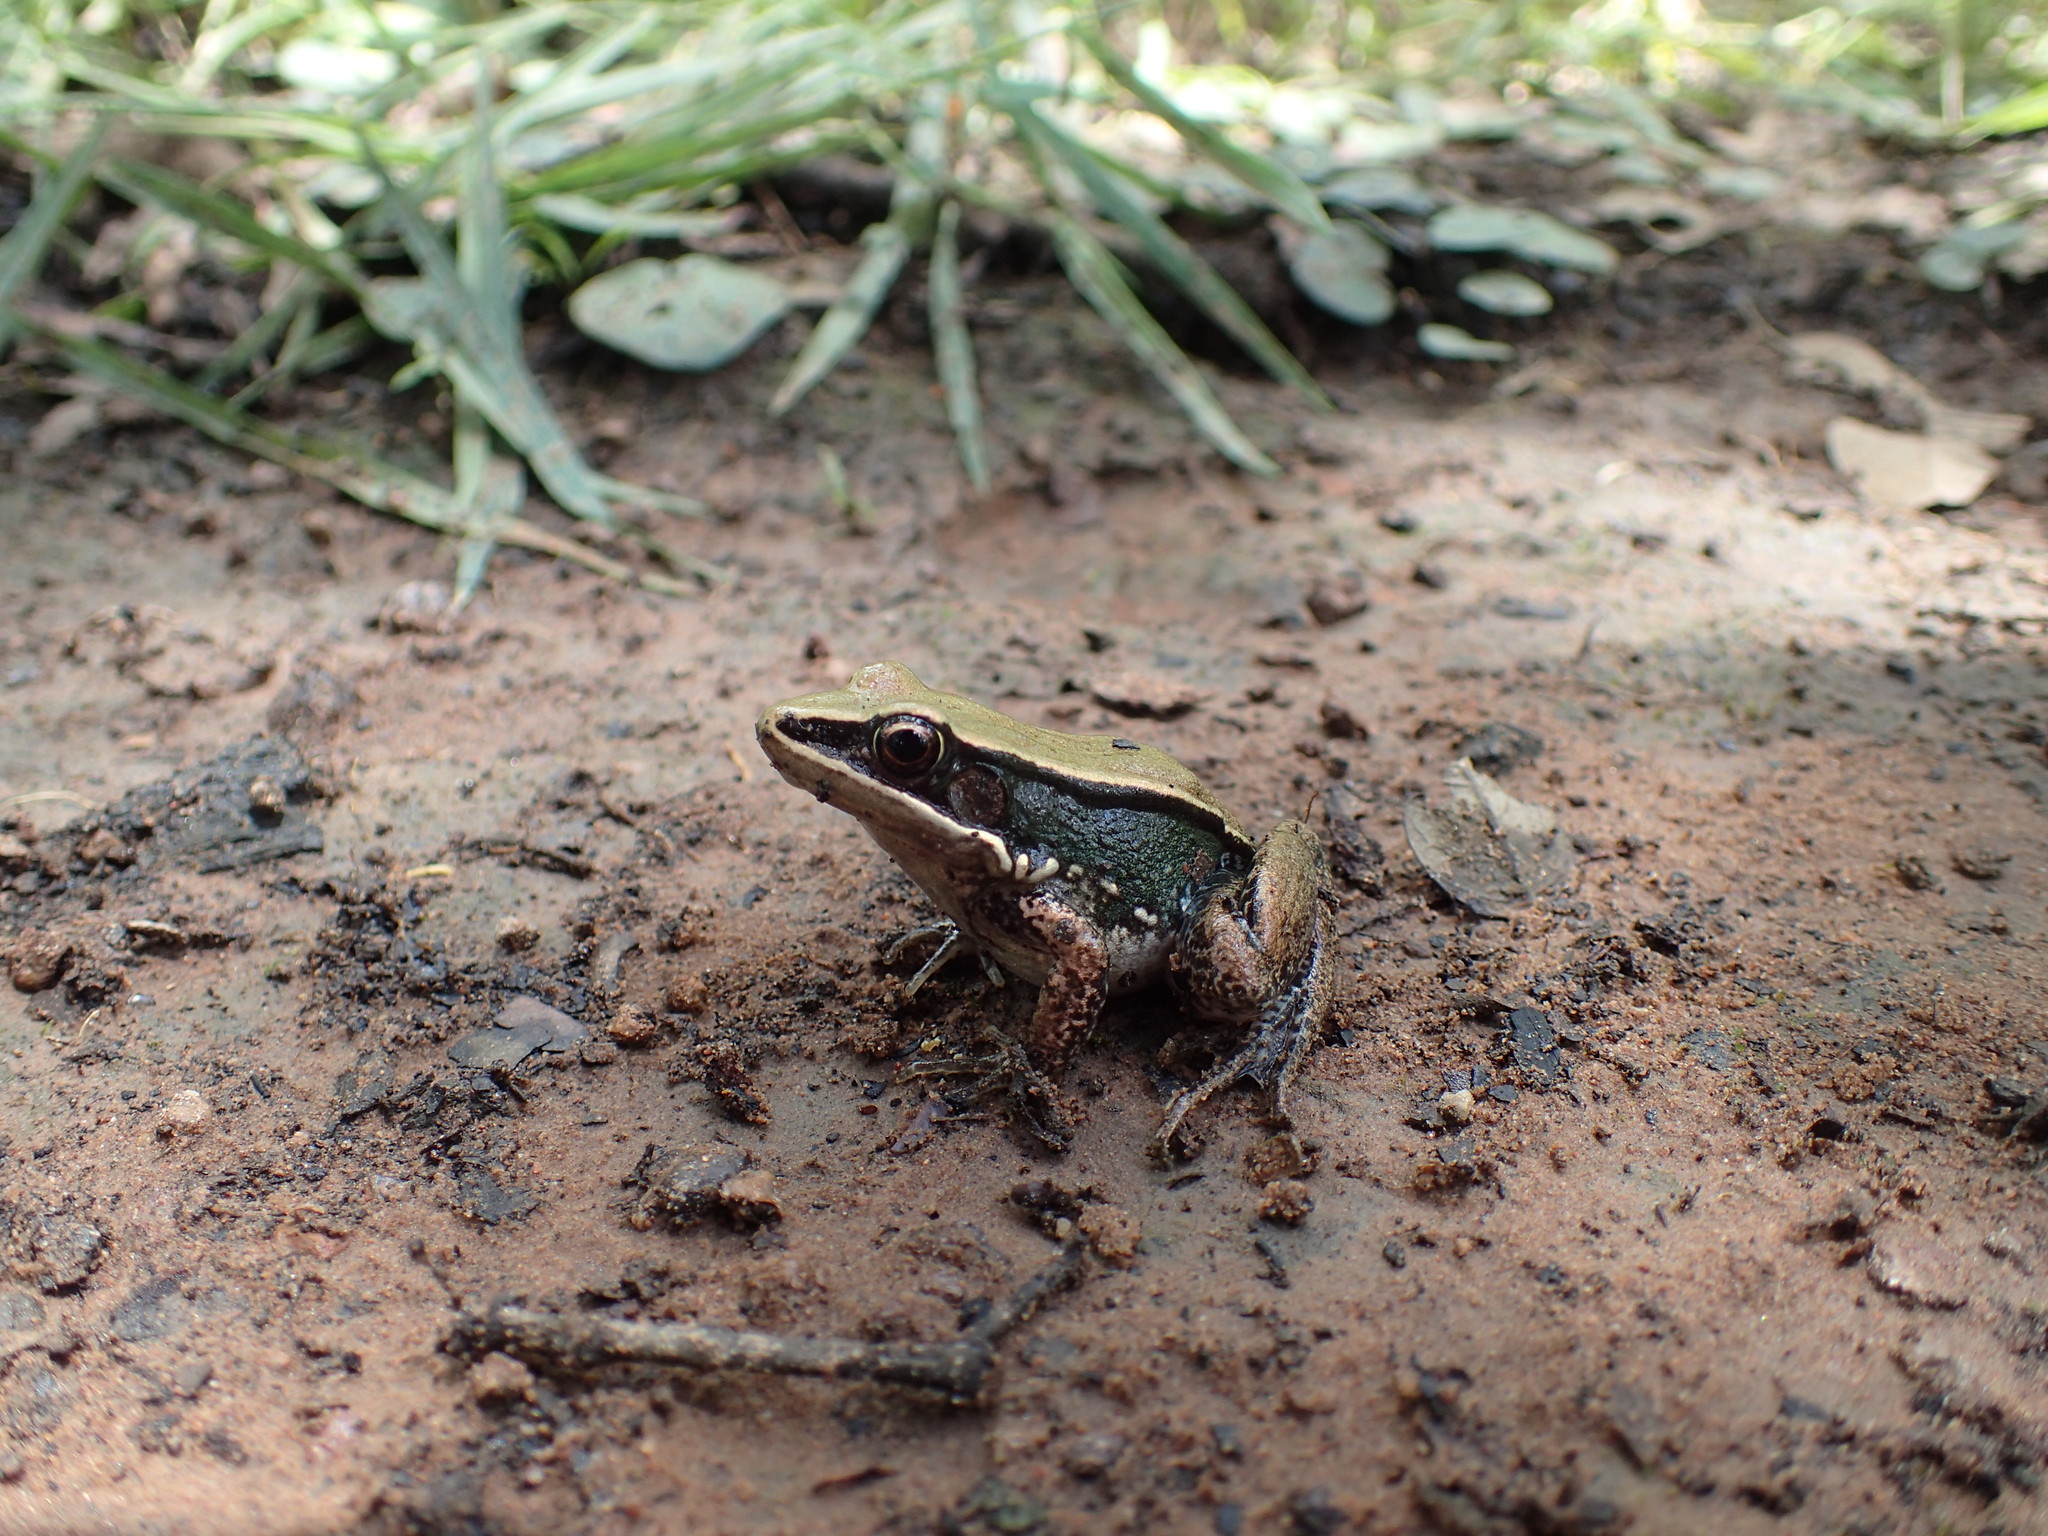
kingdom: Animalia
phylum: Chordata
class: Amphibia
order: Anura
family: Ranidae
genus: Amnirana
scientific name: Amnirana darlingi
